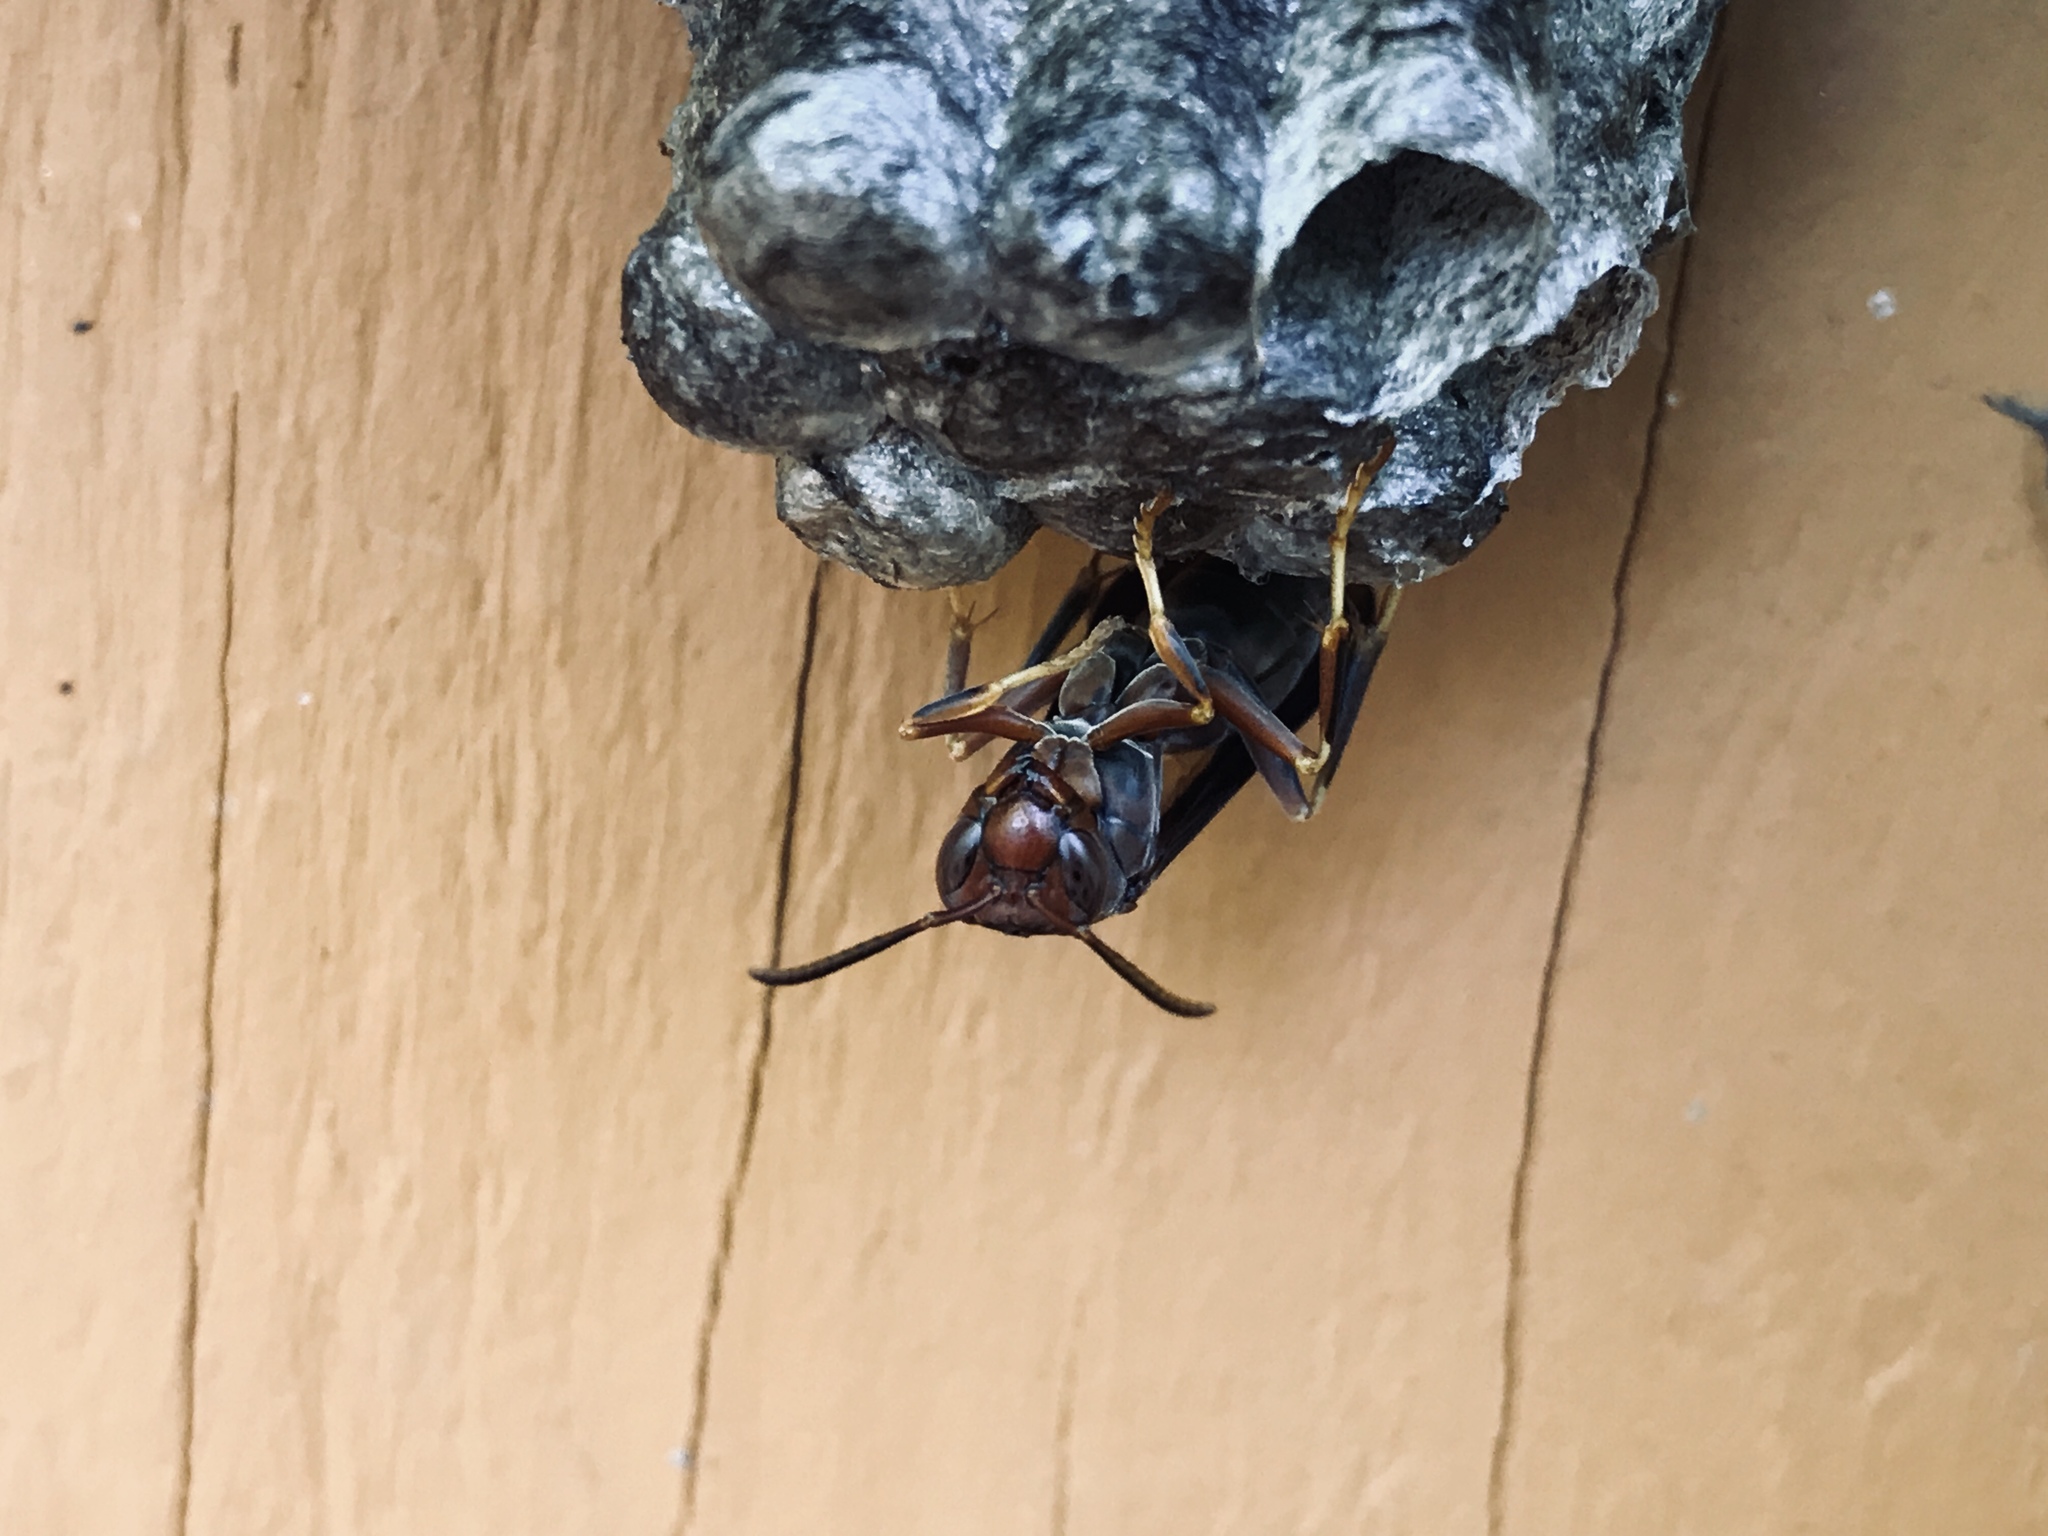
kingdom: Animalia
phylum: Arthropoda
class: Insecta
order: Hymenoptera
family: Vespidae
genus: Fuscopolistes
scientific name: Fuscopolistes
